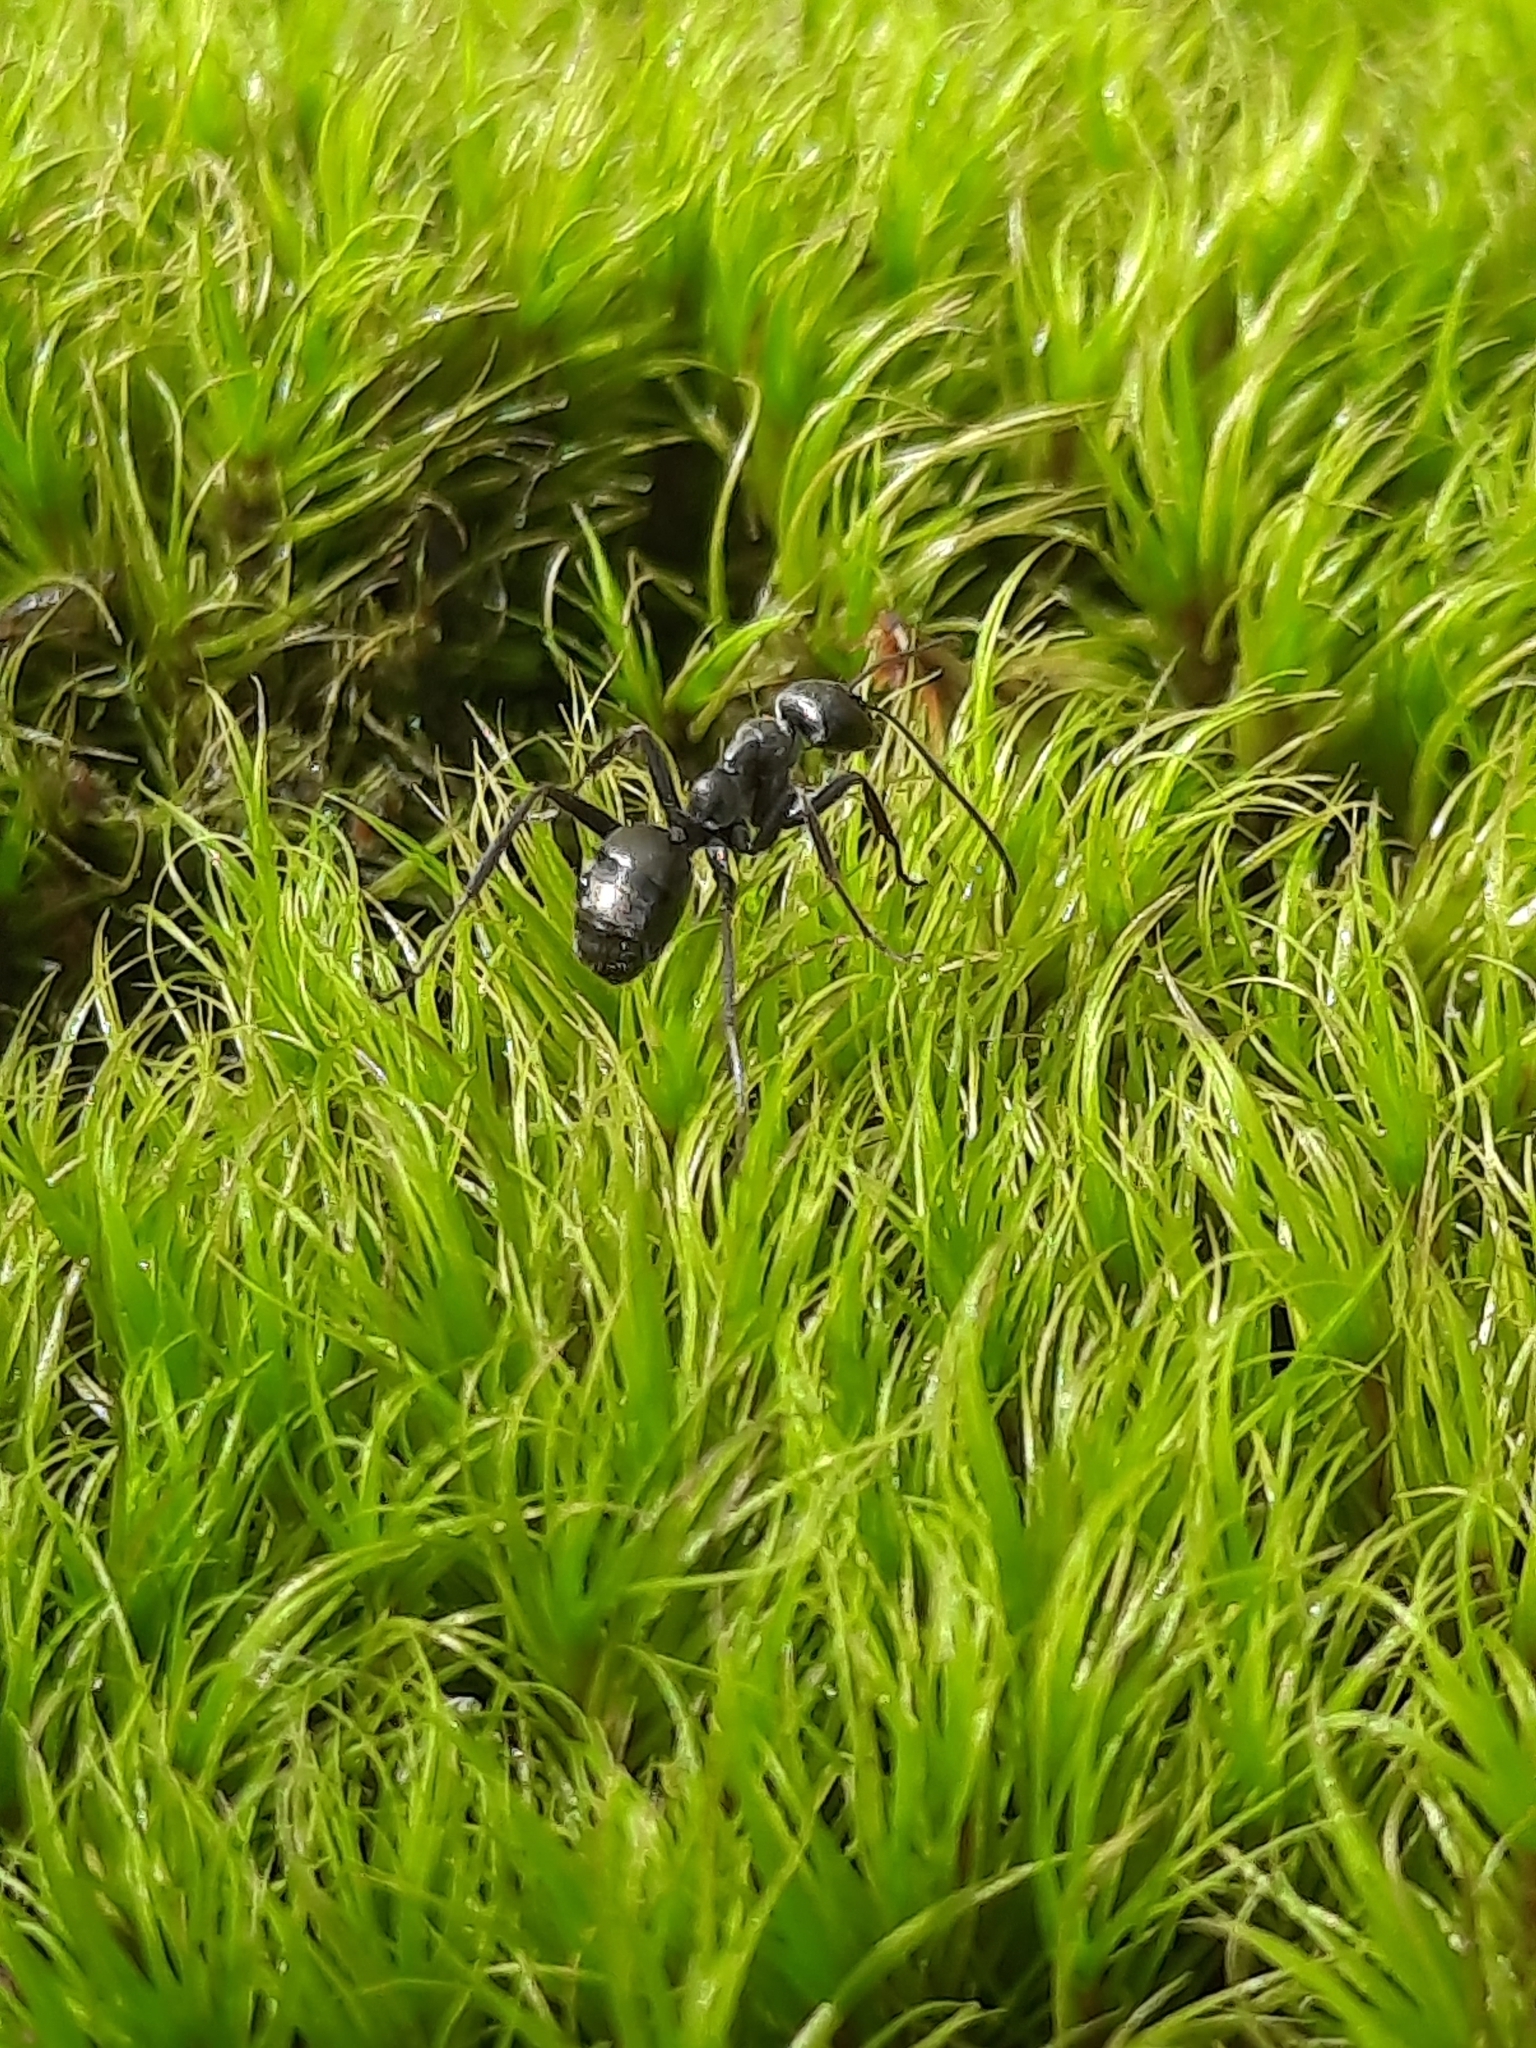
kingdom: Animalia
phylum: Arthropoda
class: Insecta
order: Hymenoptera
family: Formicidae
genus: Formica
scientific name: Formica
